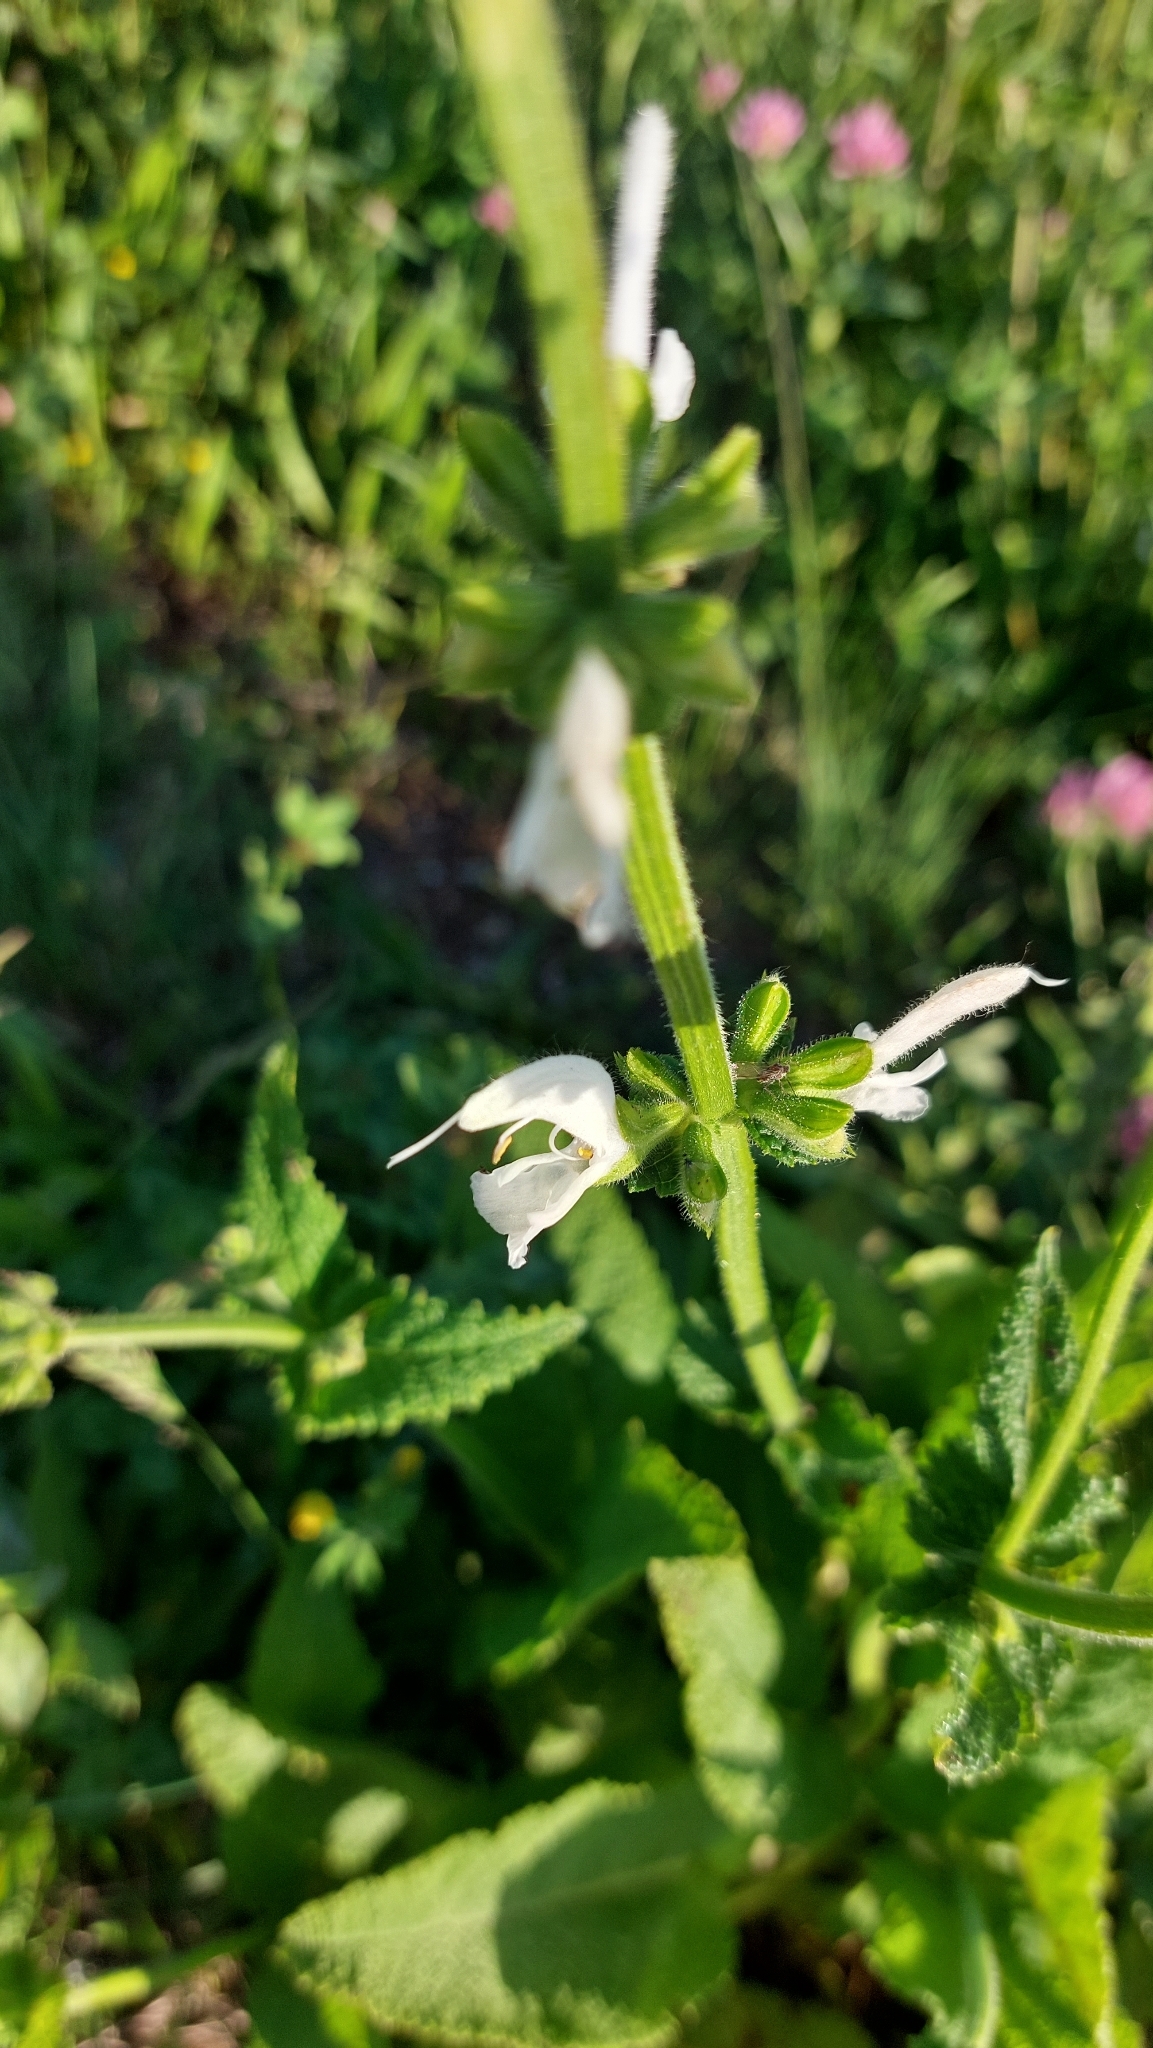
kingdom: Plantae
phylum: Tracheophyta
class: Magnoliopsida
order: Lamiales
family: Lamiaceae
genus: Salvia
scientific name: Salvia pratensis
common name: Meadow sage
